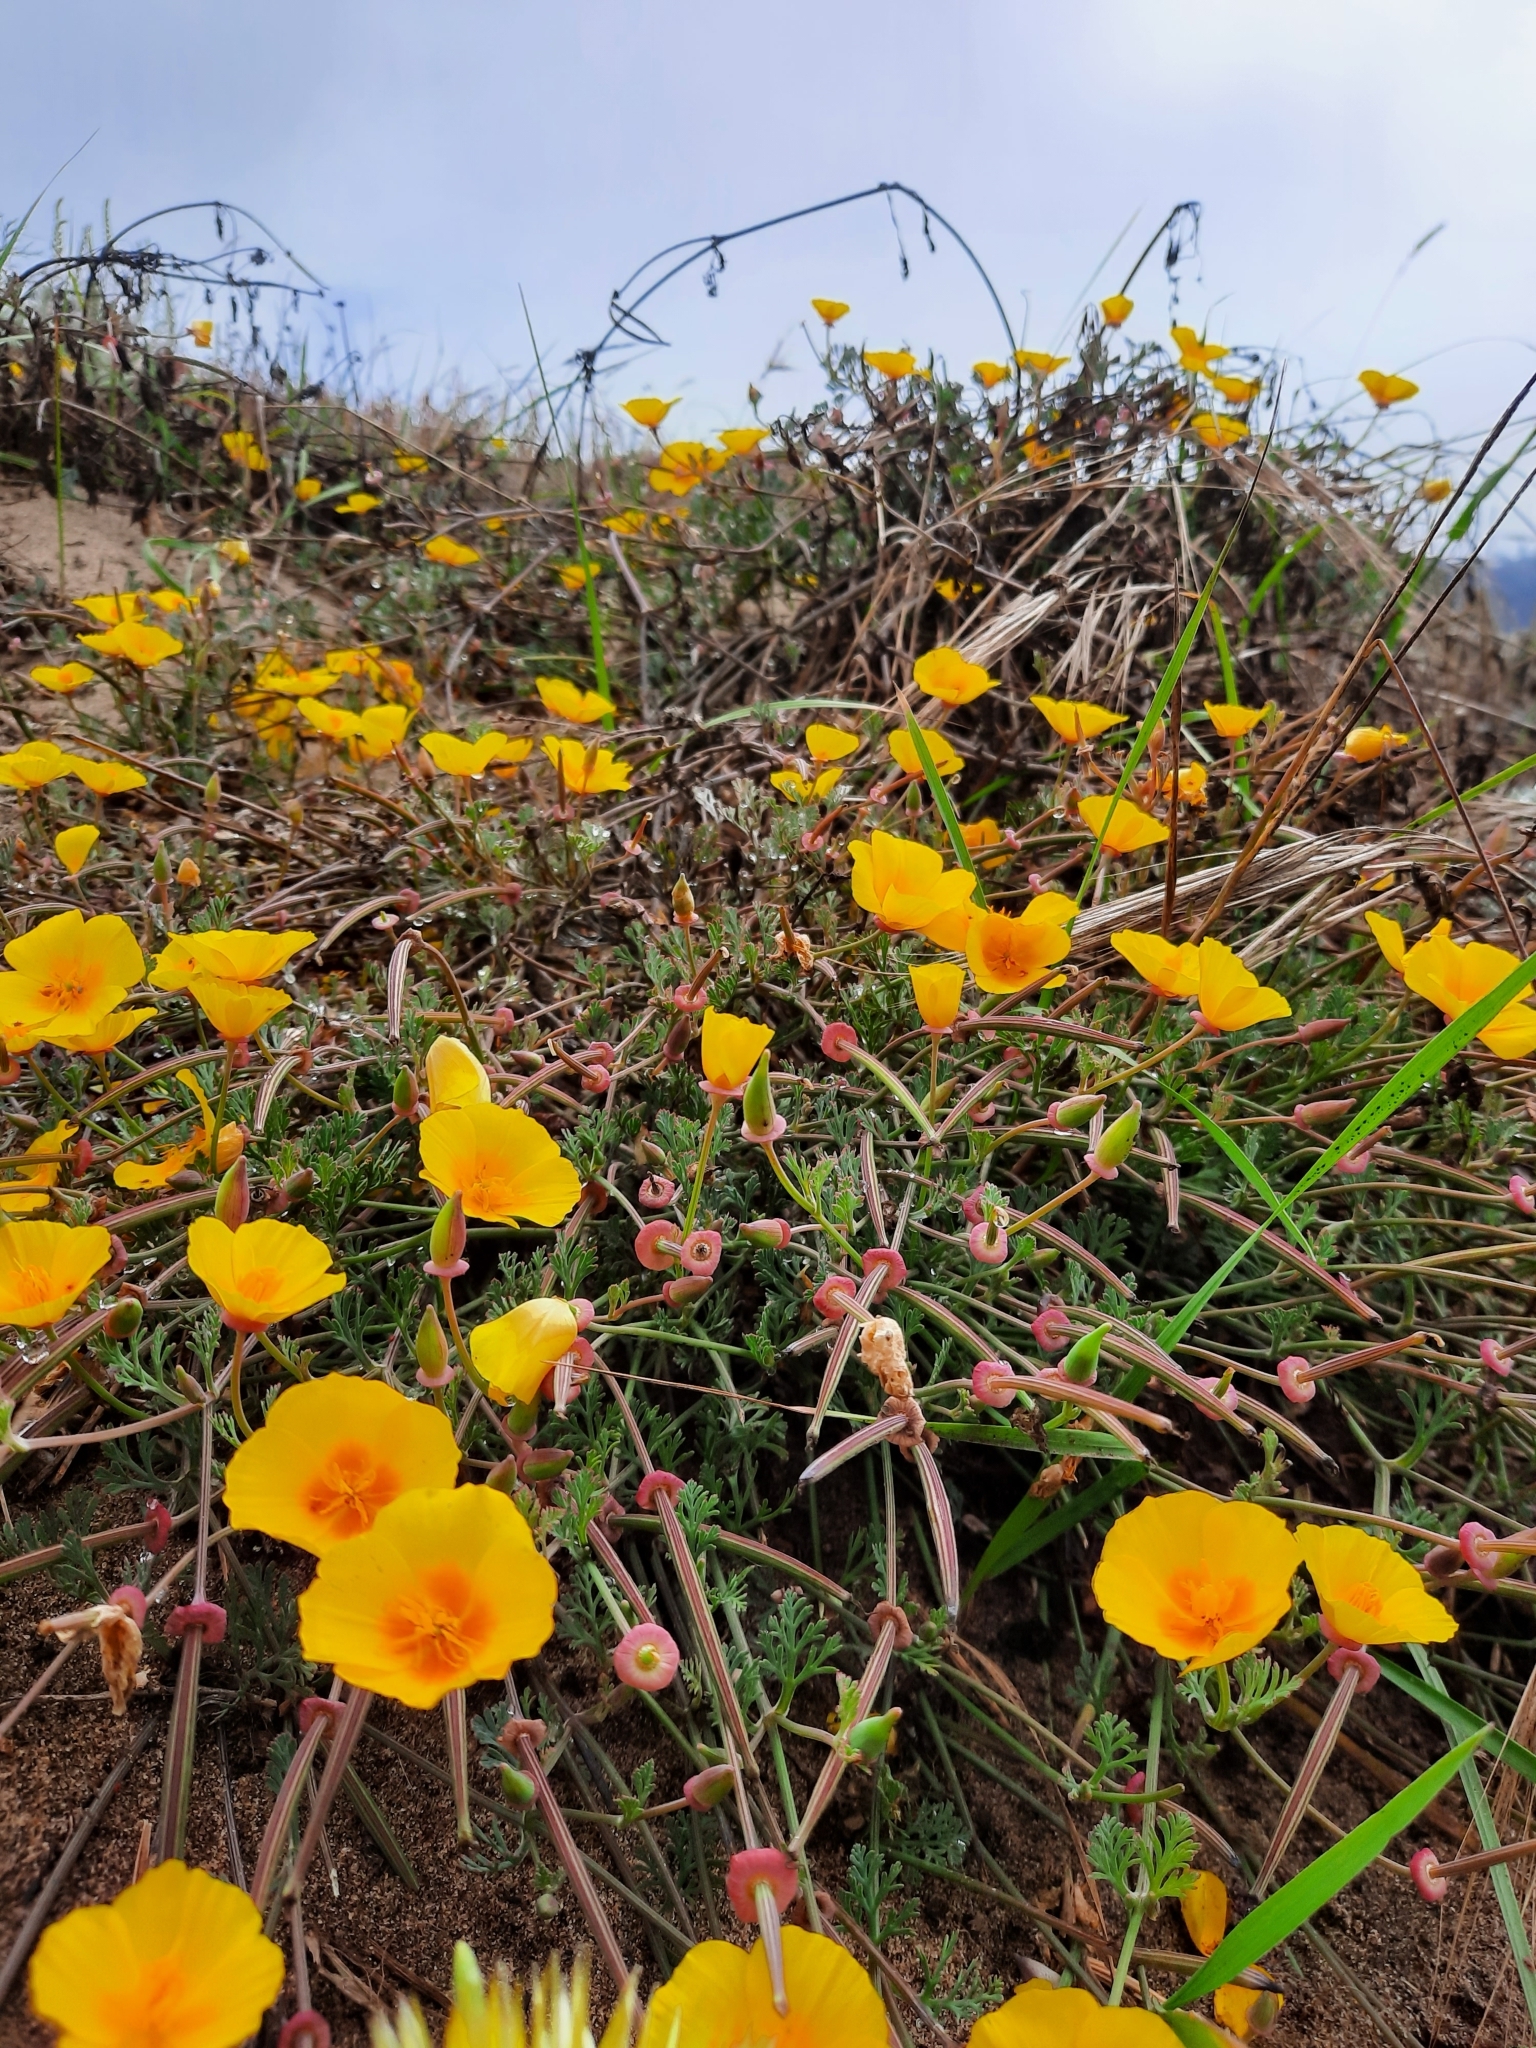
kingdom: Plantae
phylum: Tracheophyta
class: Magnoliopsida
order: Ranunculales
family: Papaveraceae
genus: Eschscholzia
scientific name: Eschscholzia californica
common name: California poppy
